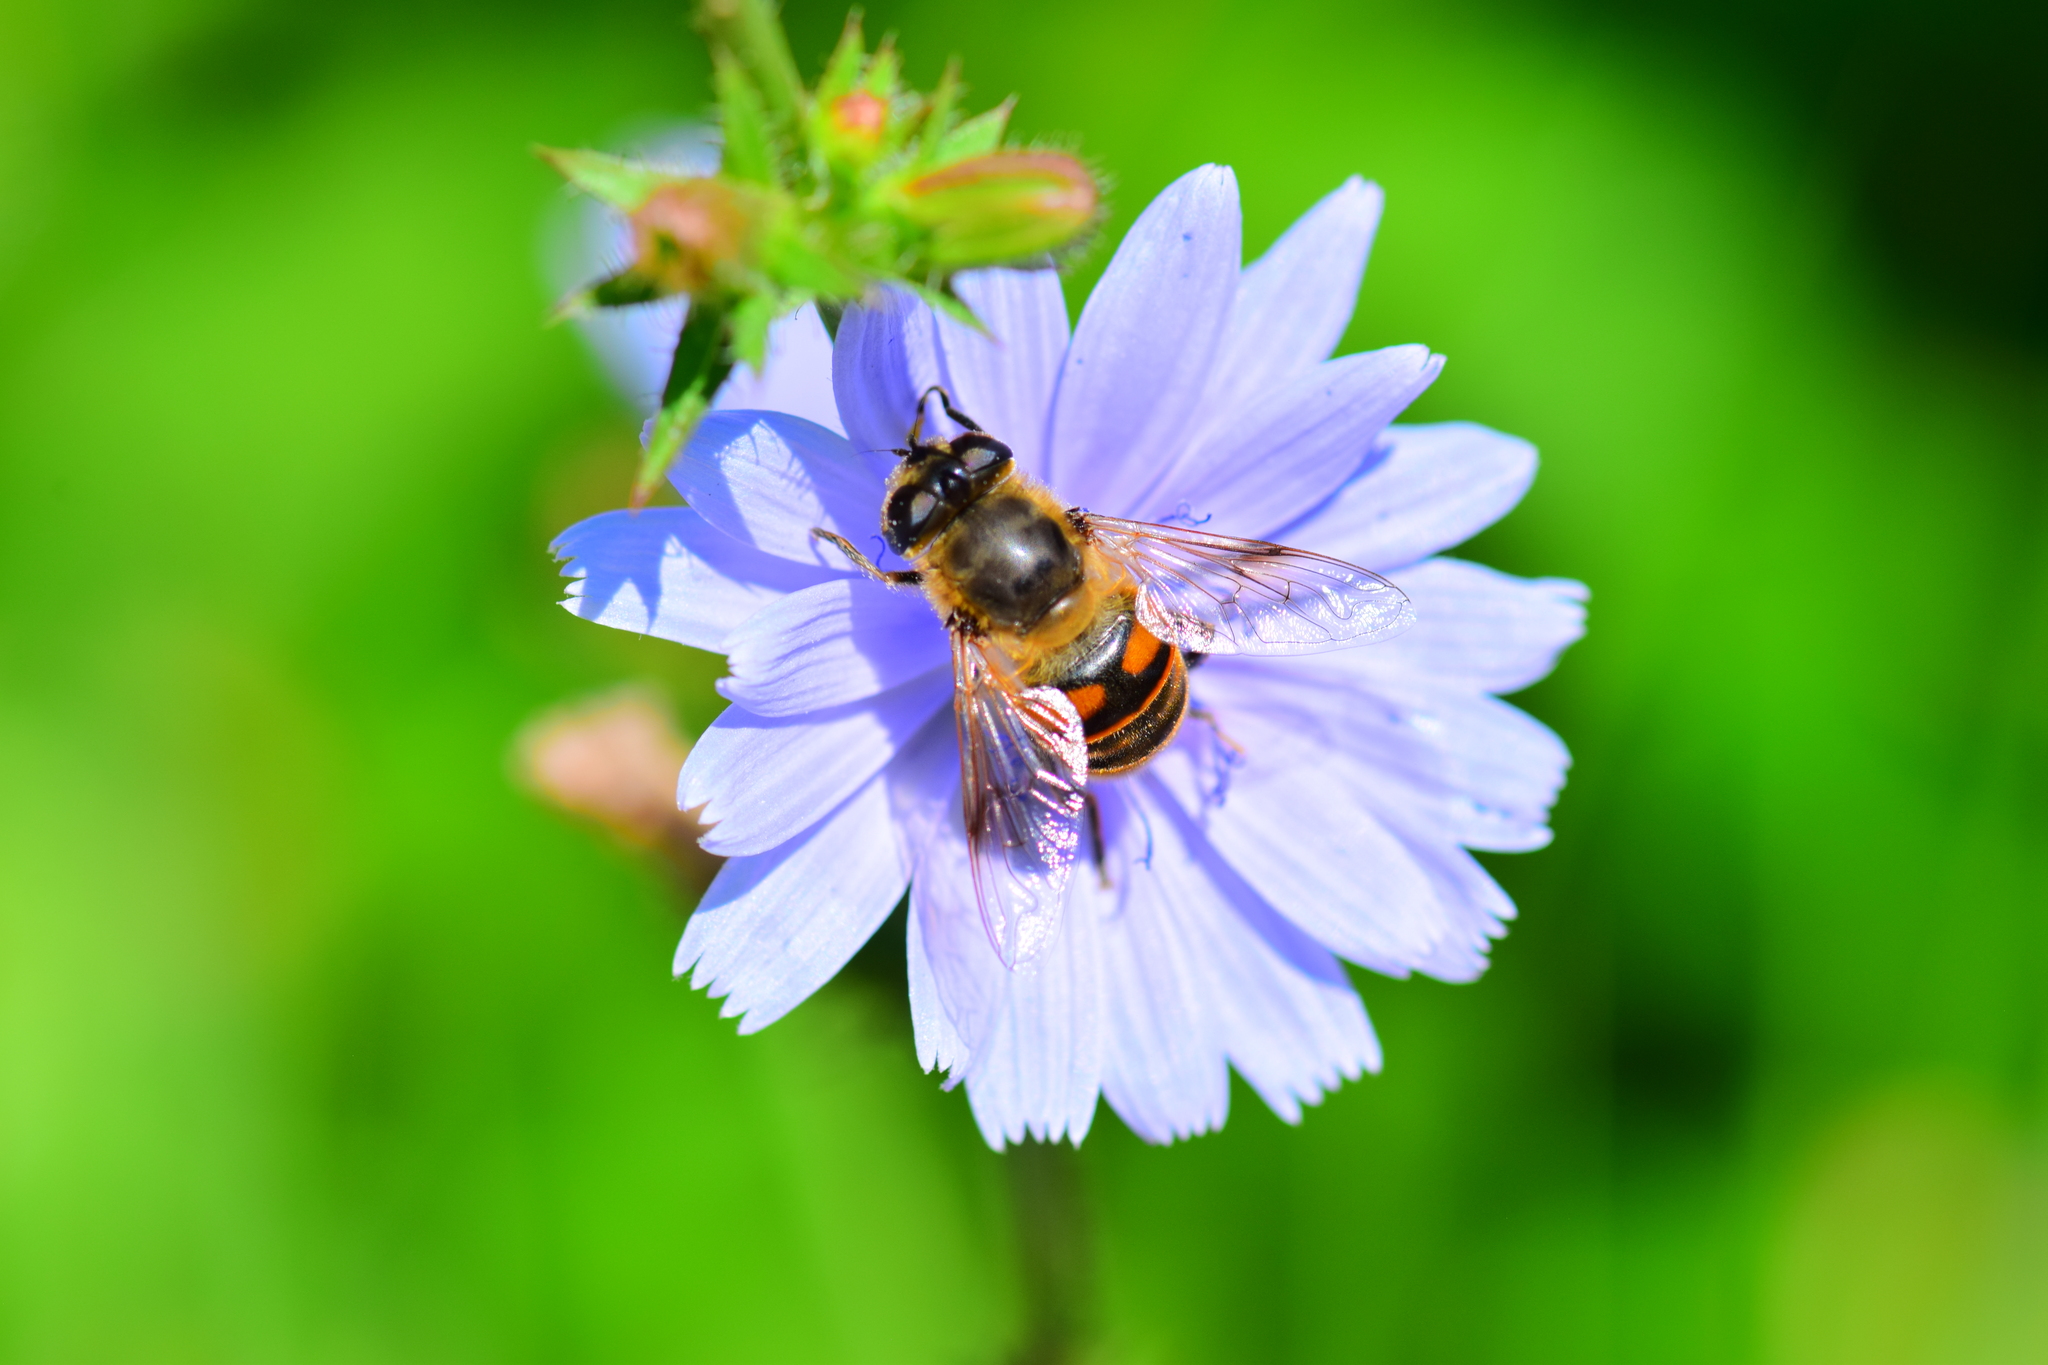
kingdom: Animalia
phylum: Arthropoda
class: Insecta
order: Diptera
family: Syrphidae
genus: Eristalis
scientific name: Eristalis tenax
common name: Drone fly
